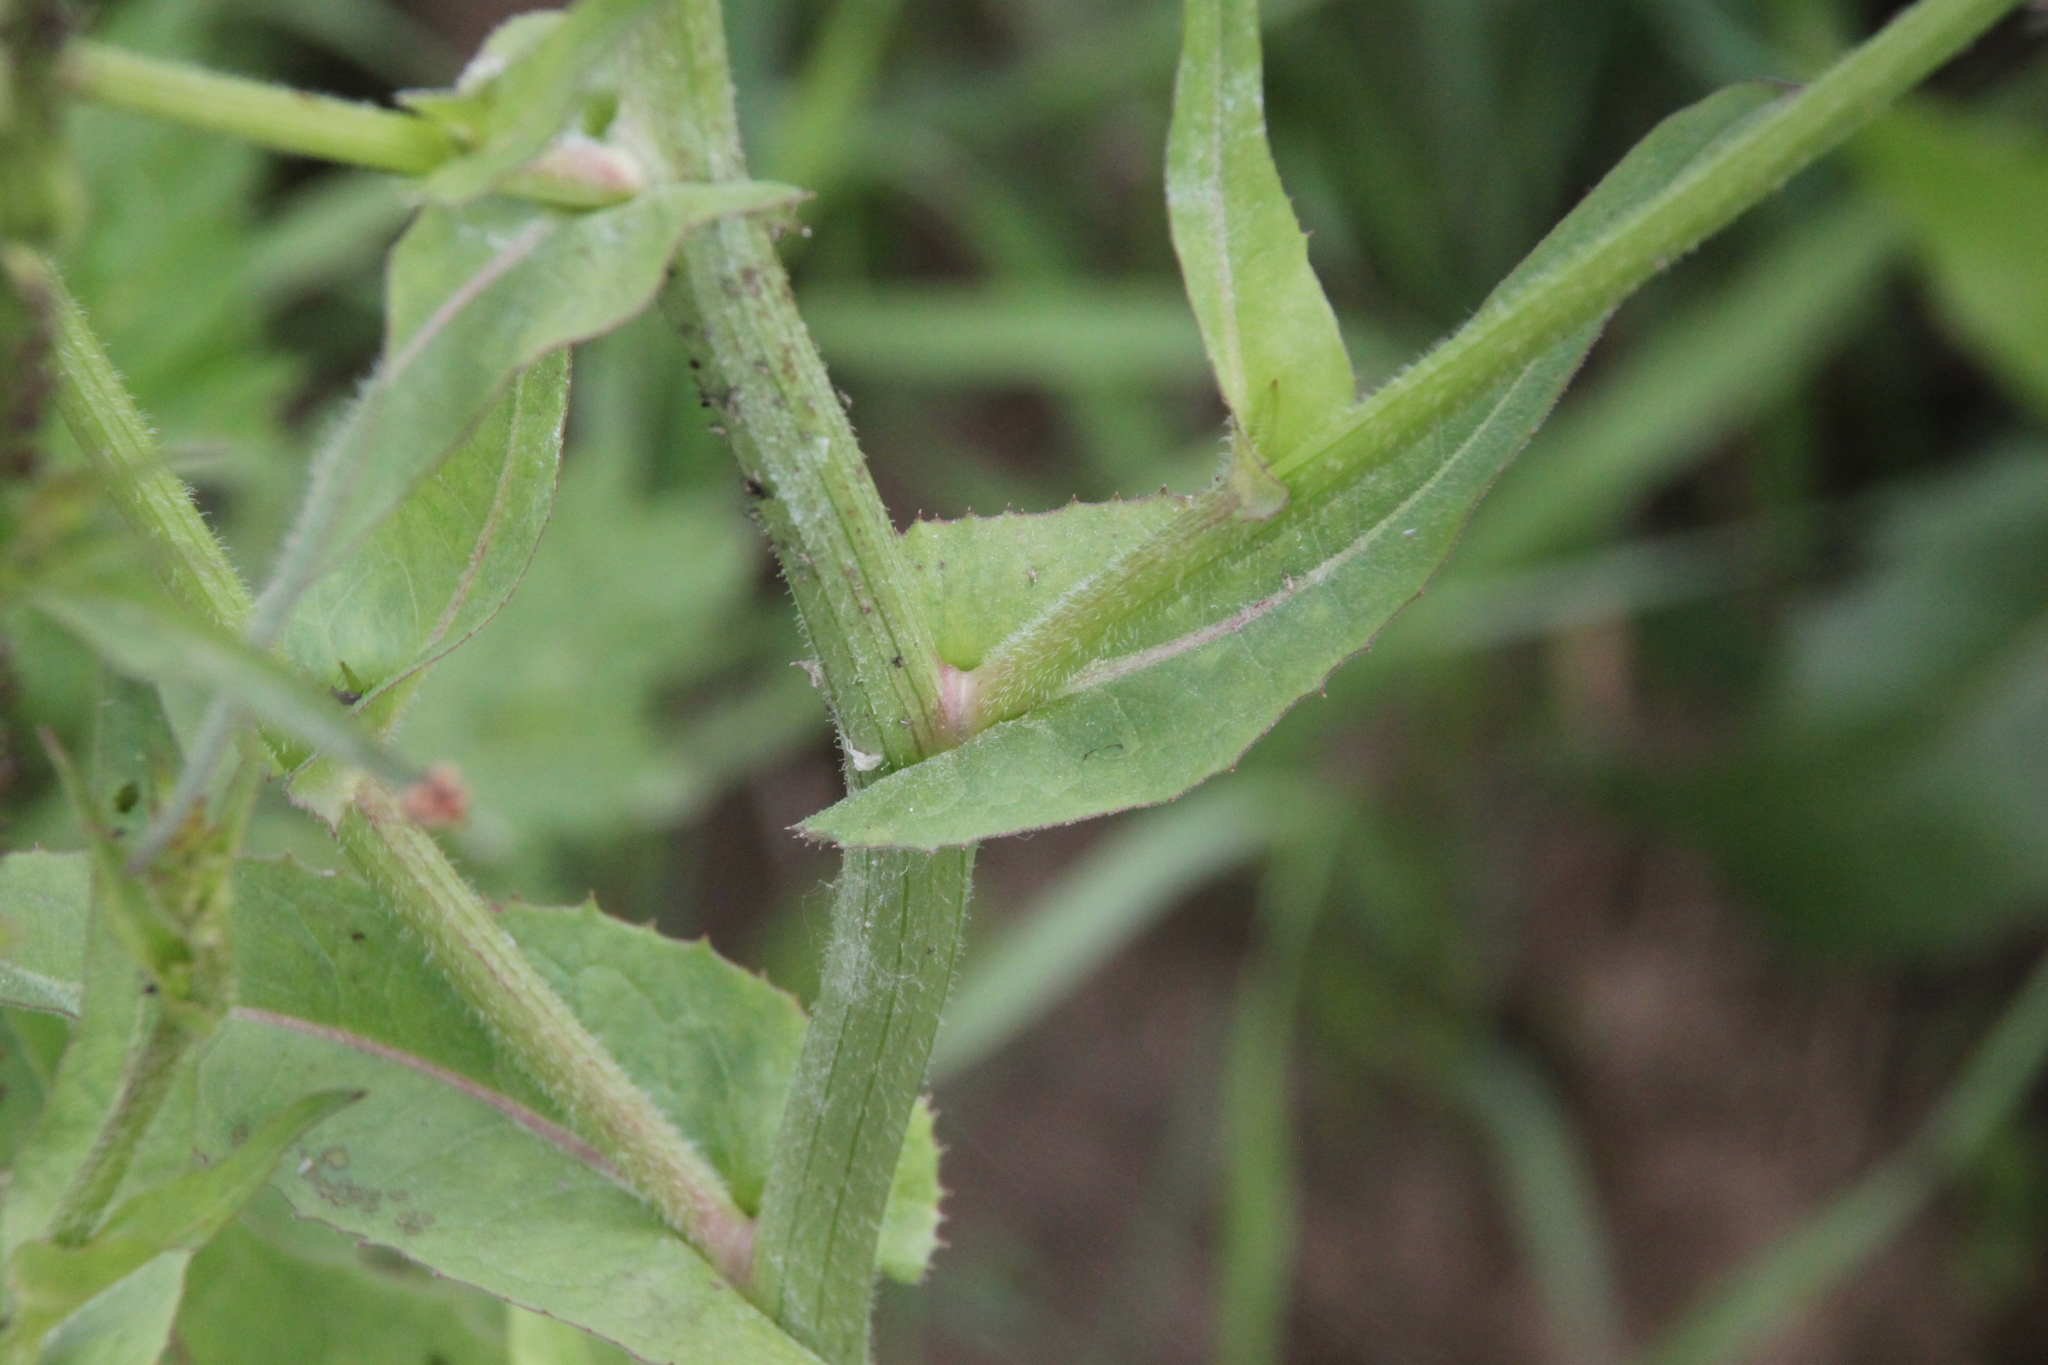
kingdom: Plantae
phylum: Tracheophyta
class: Magnoliopsida
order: Asterales
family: Asteraceae
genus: Cichorium
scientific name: Cichorium intybus
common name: Chicory
